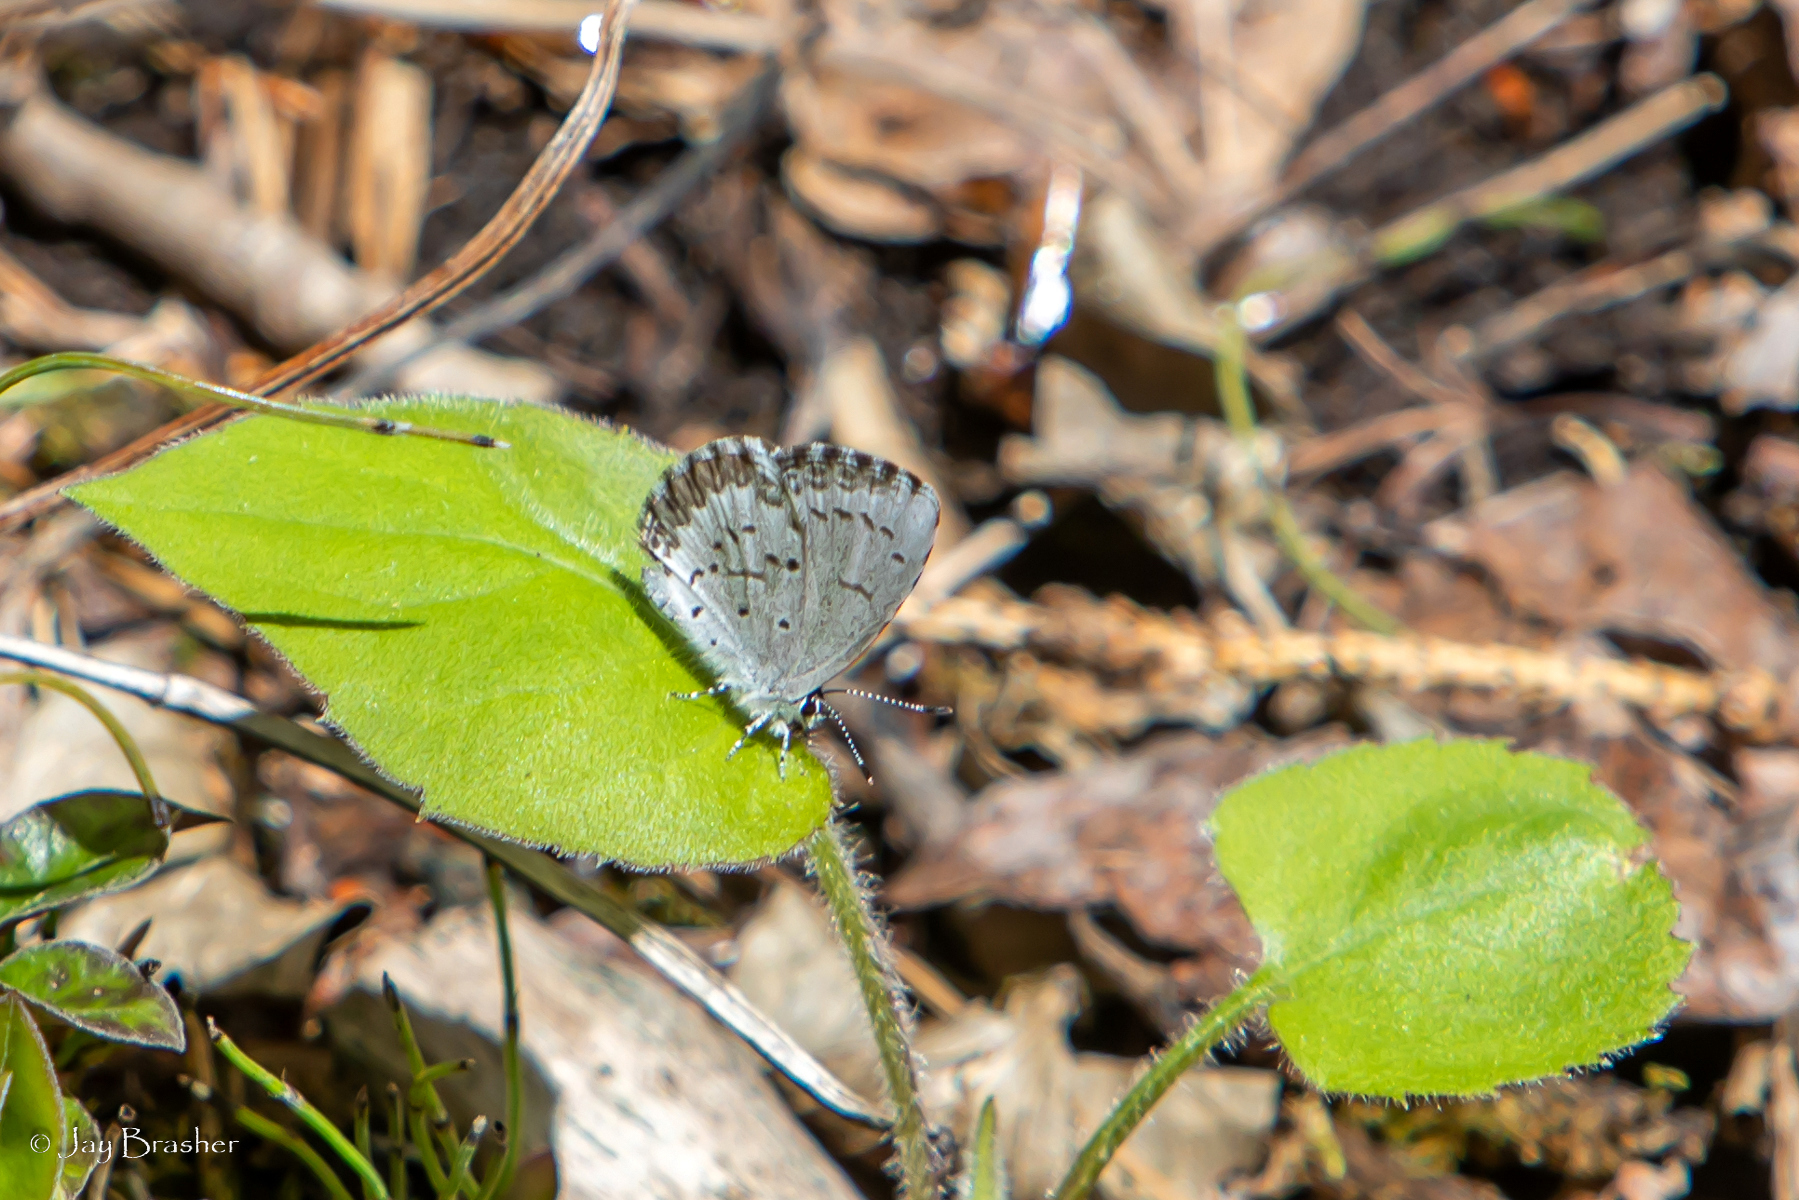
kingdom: Animalia
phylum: Arthropoda
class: Insecta
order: Lepidoptera
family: Lycaenidae
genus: Celastrina
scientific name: Celastrina lucia
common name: Lucia azure
